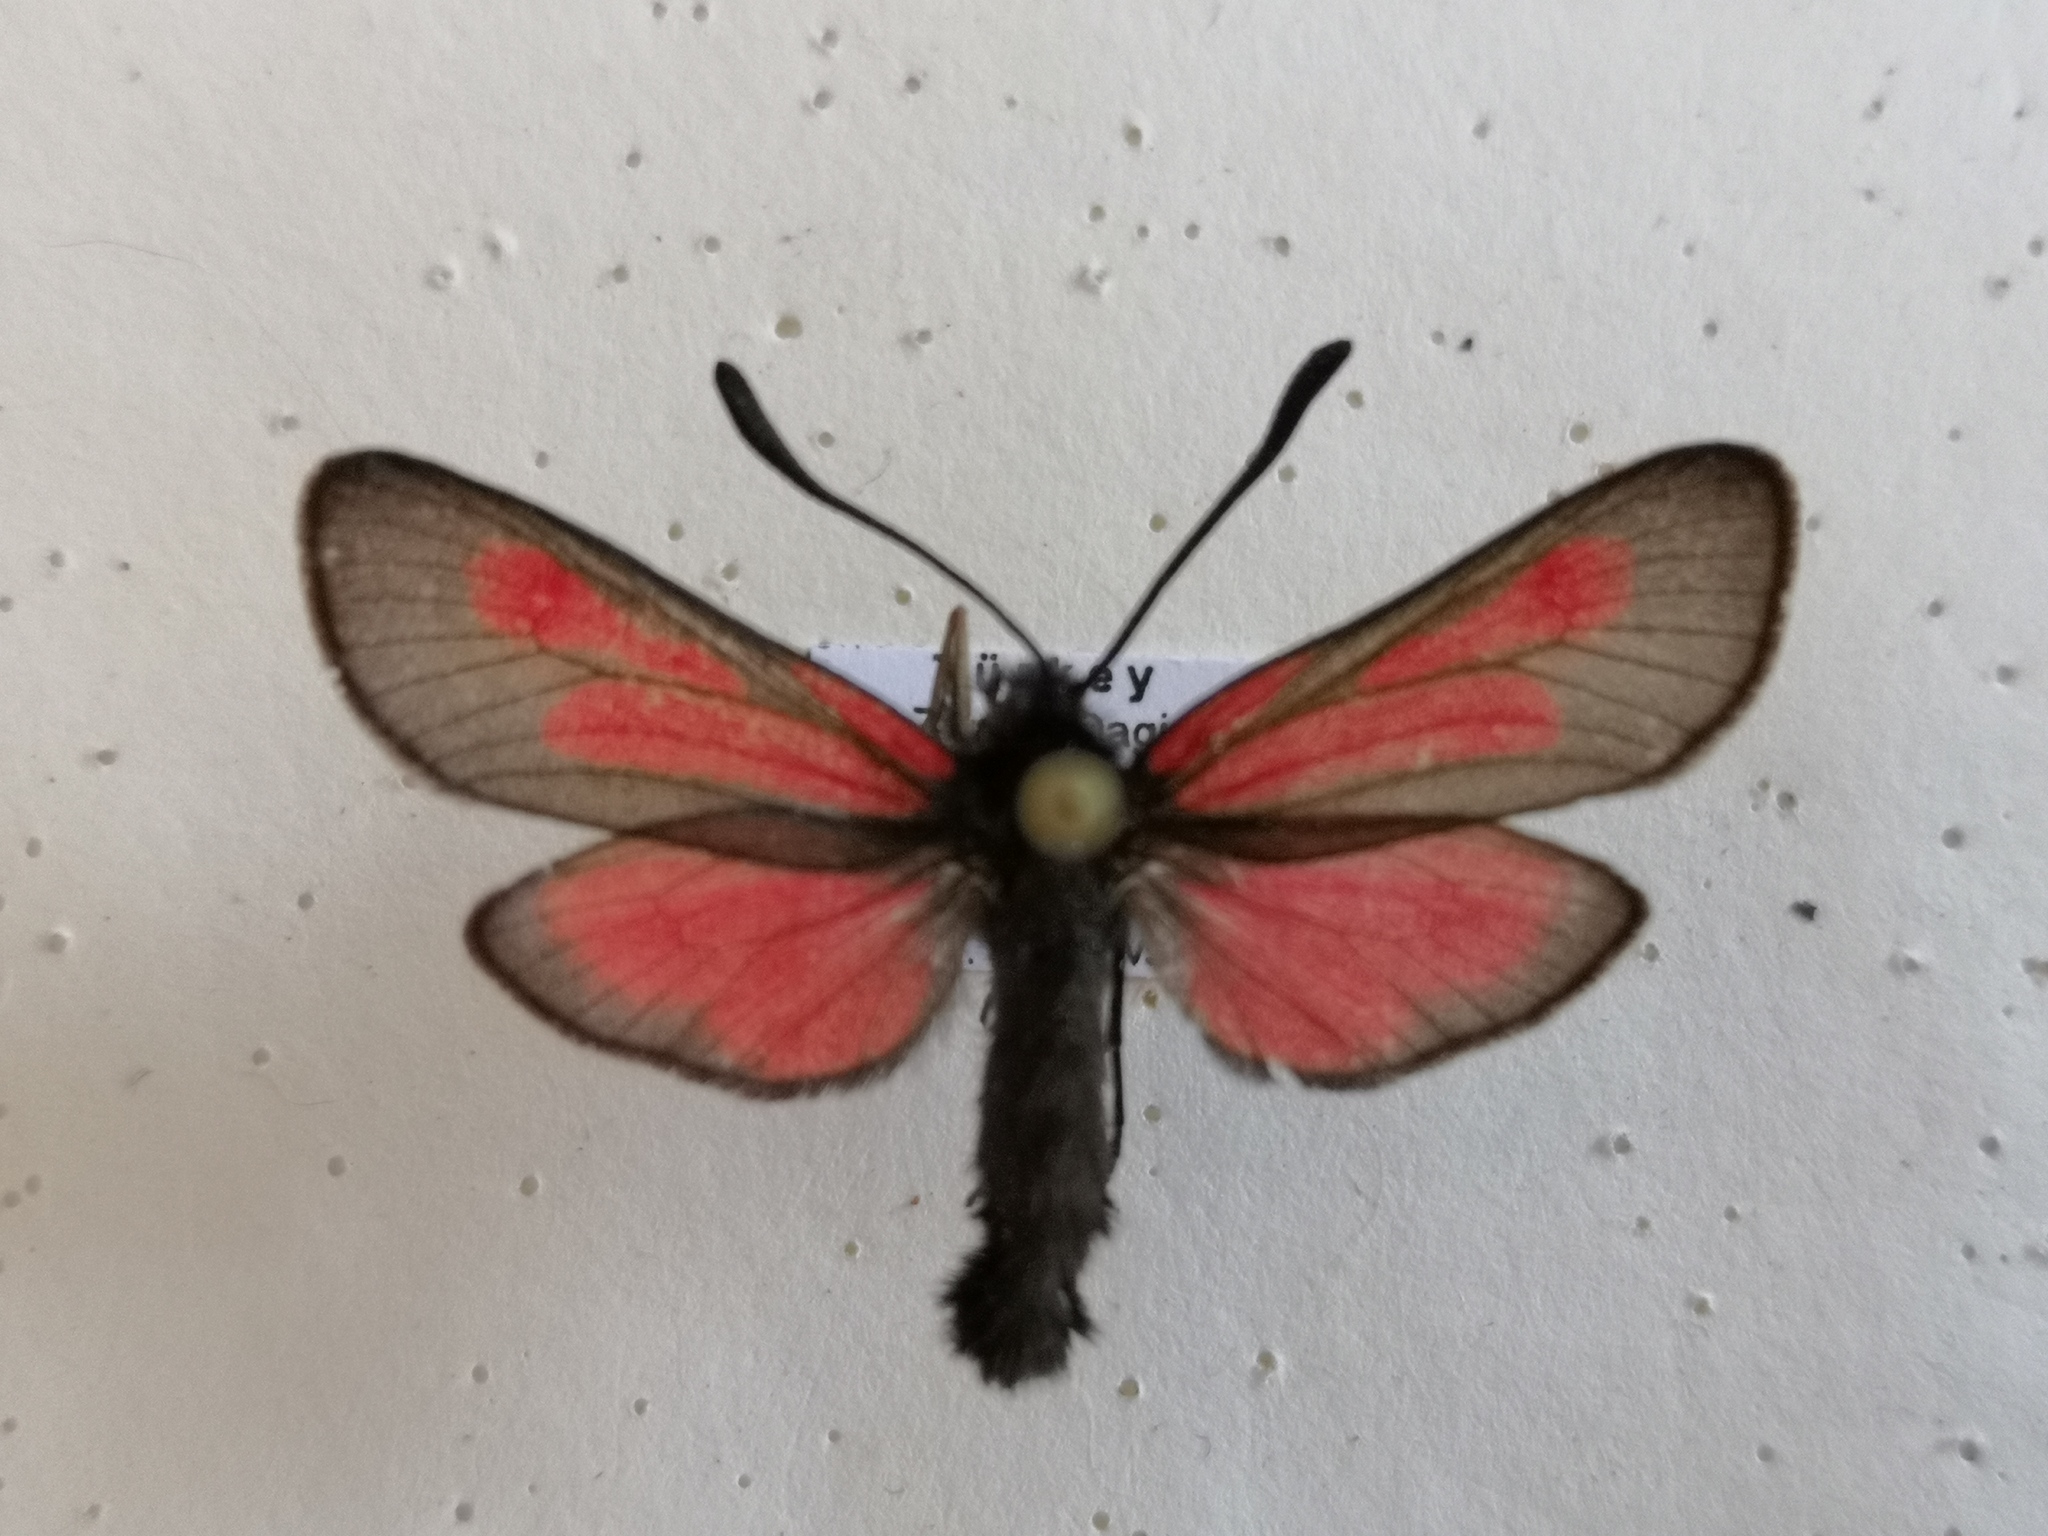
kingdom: Animalia
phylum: Arthropoda
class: Insecta
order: Lepidoptera
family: Zygaenidae
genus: Zygaena
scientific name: Zygaena brizae
